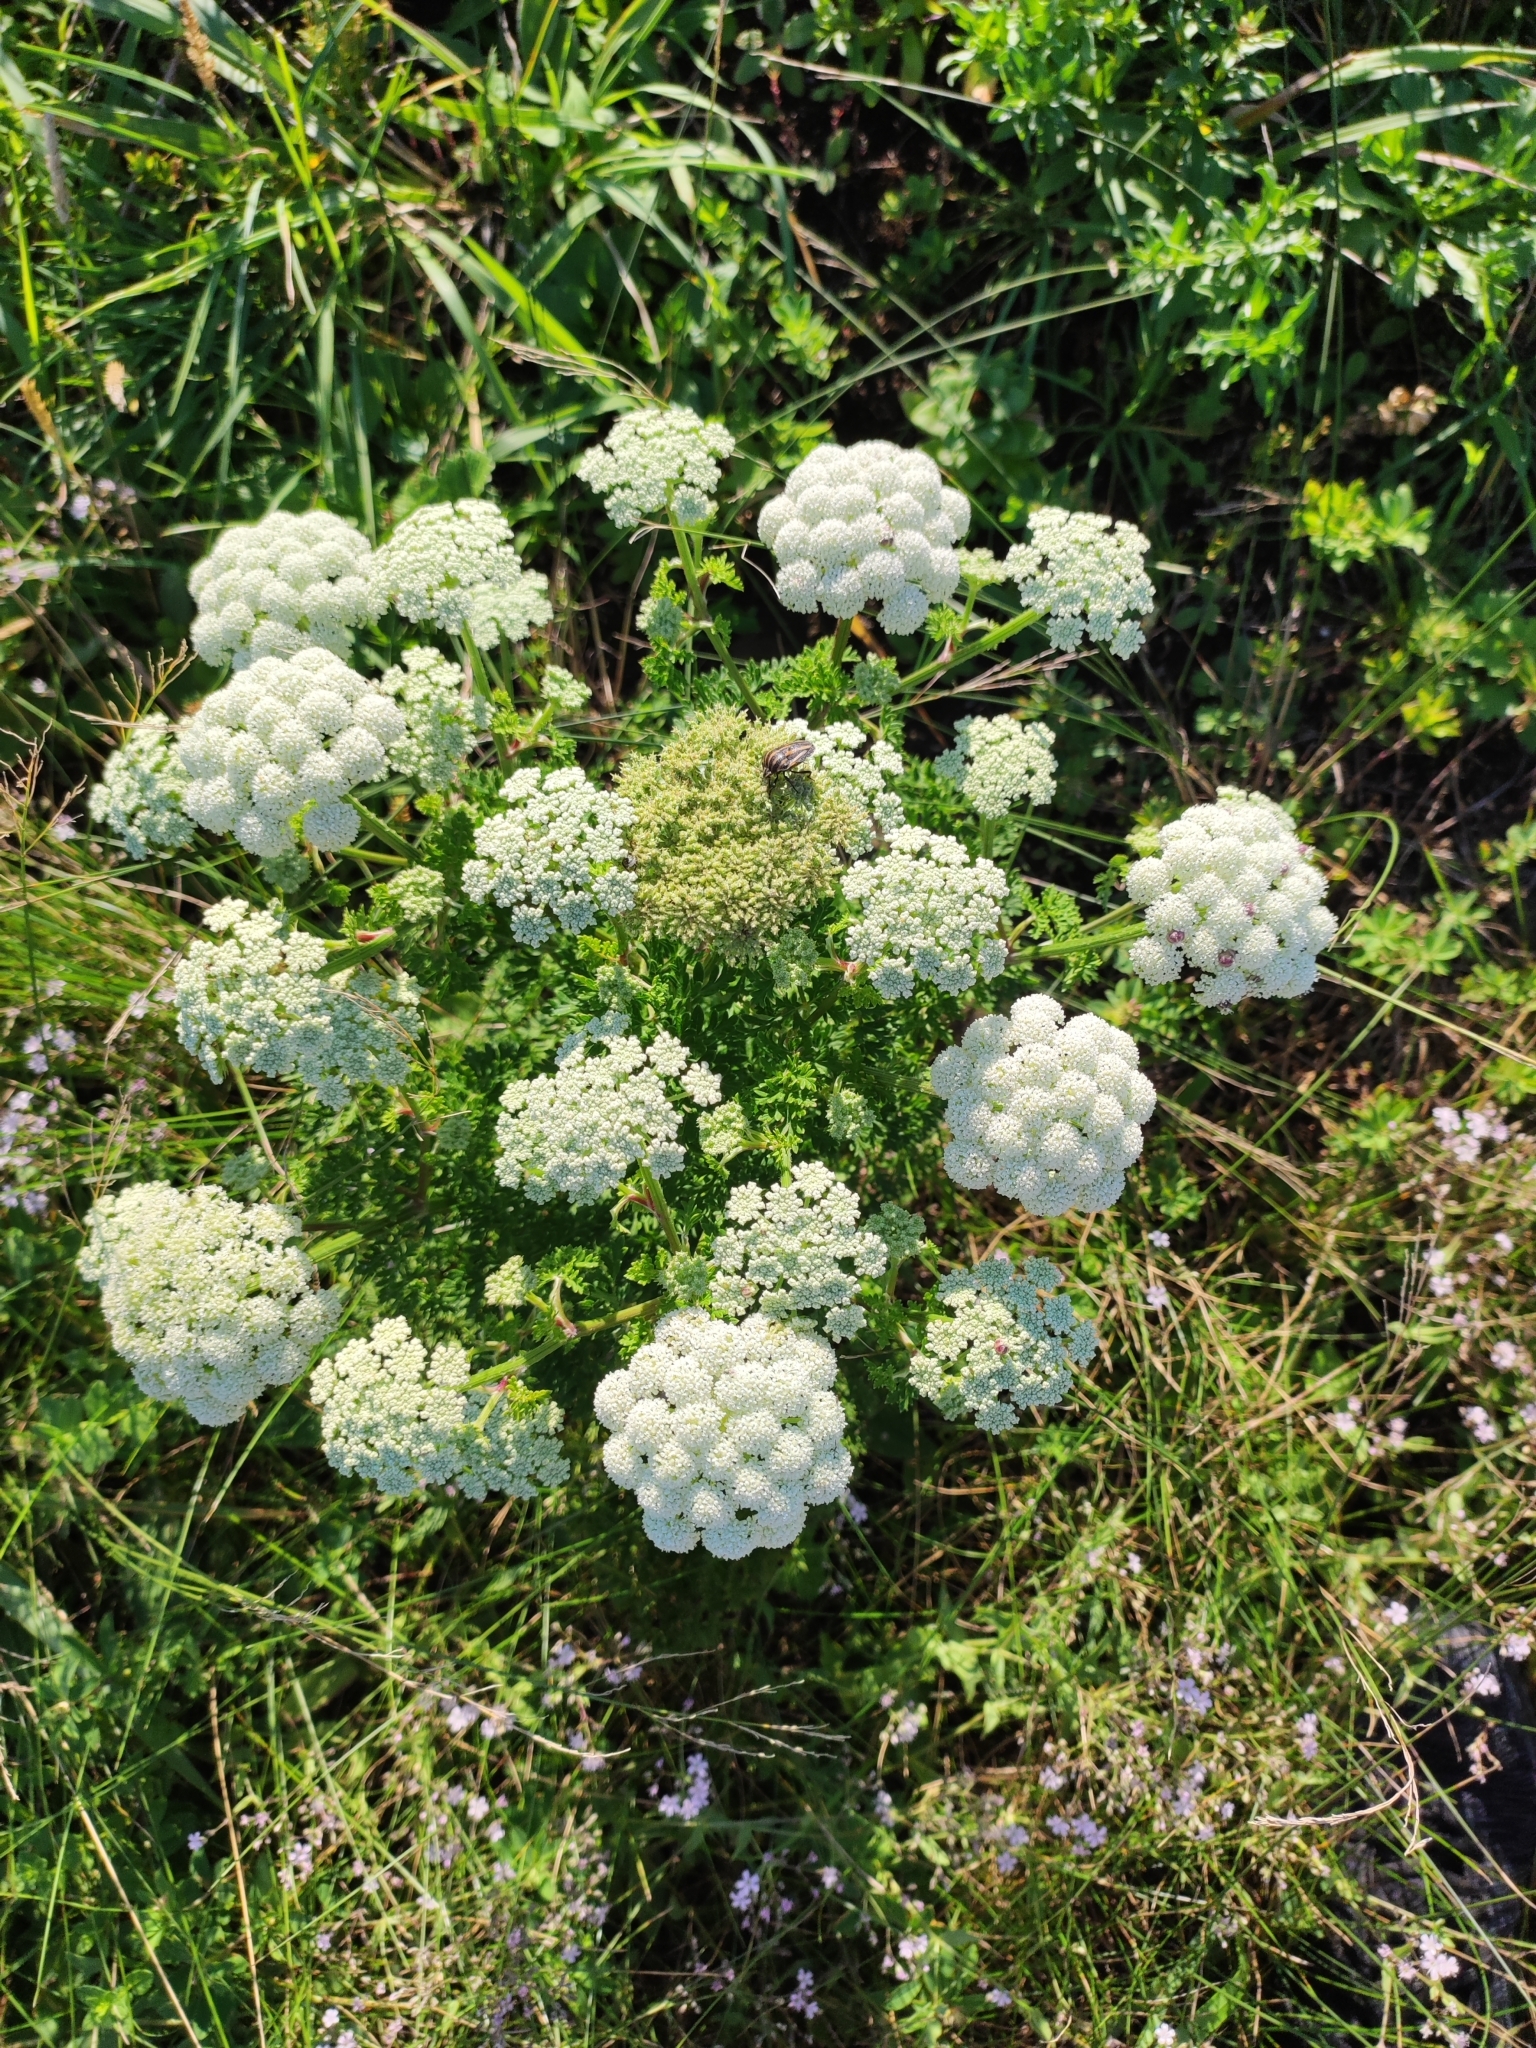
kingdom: Plantae
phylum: Tracheophyta
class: Magnoliopsida
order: Apiales
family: Apiaceae
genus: Seseli
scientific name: Seseli seseloides
